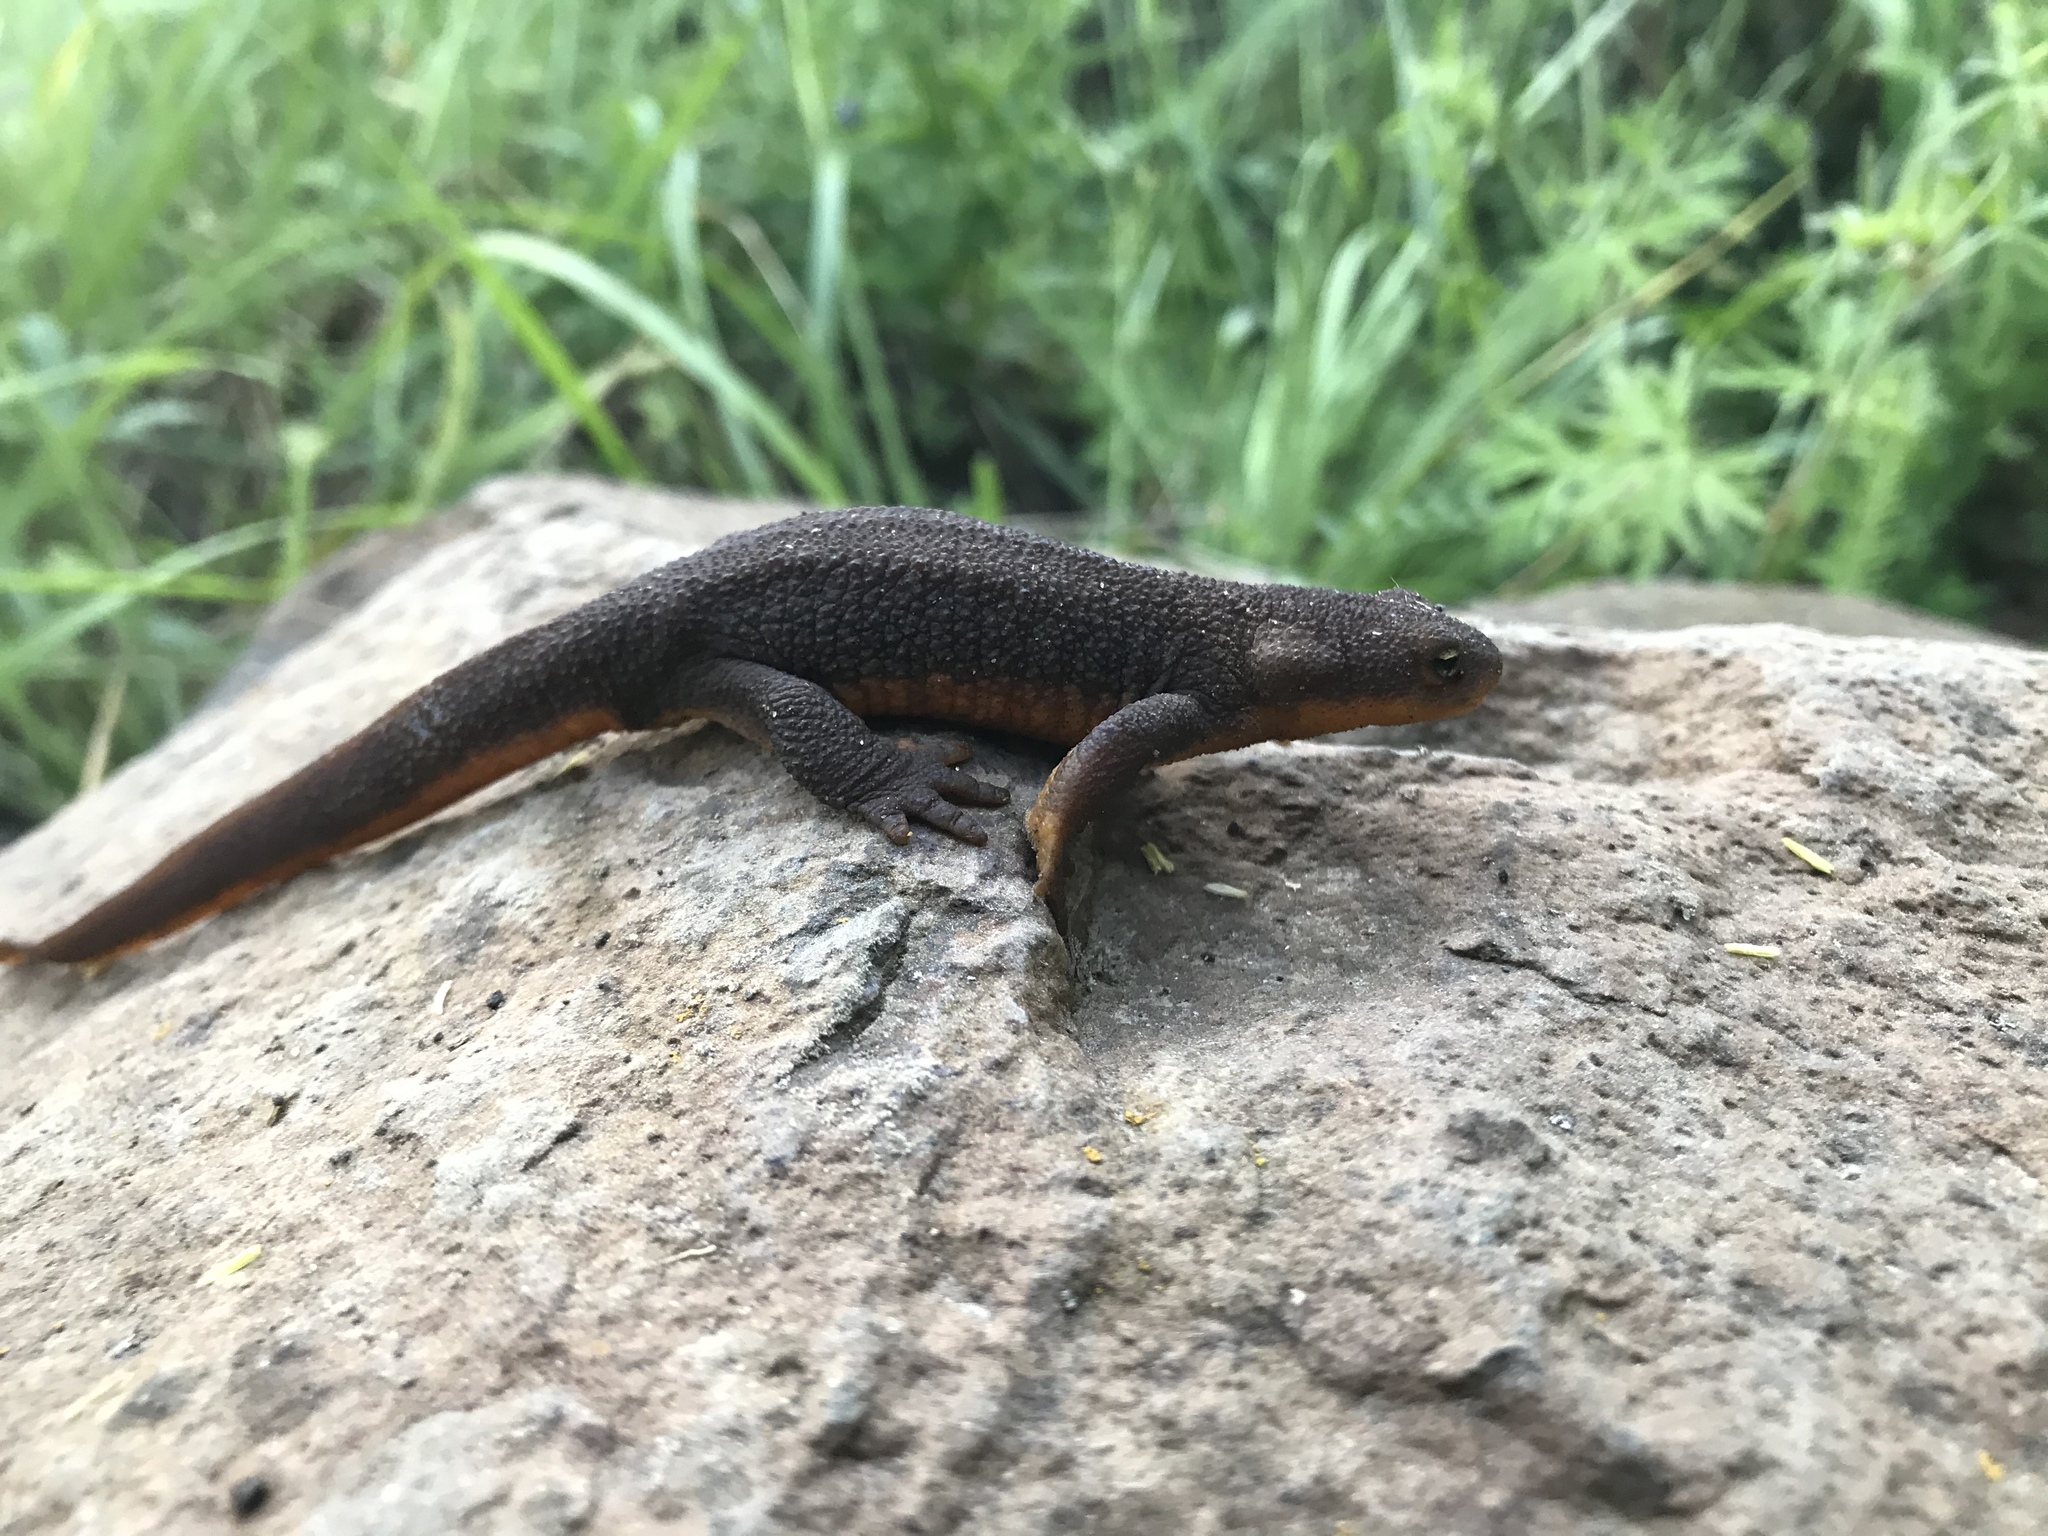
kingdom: Animalia
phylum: Chordata
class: Amphibia
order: Caudata
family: Salamandridae
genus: Taricha
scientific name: Taricha granulosa
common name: Roughskin newt
